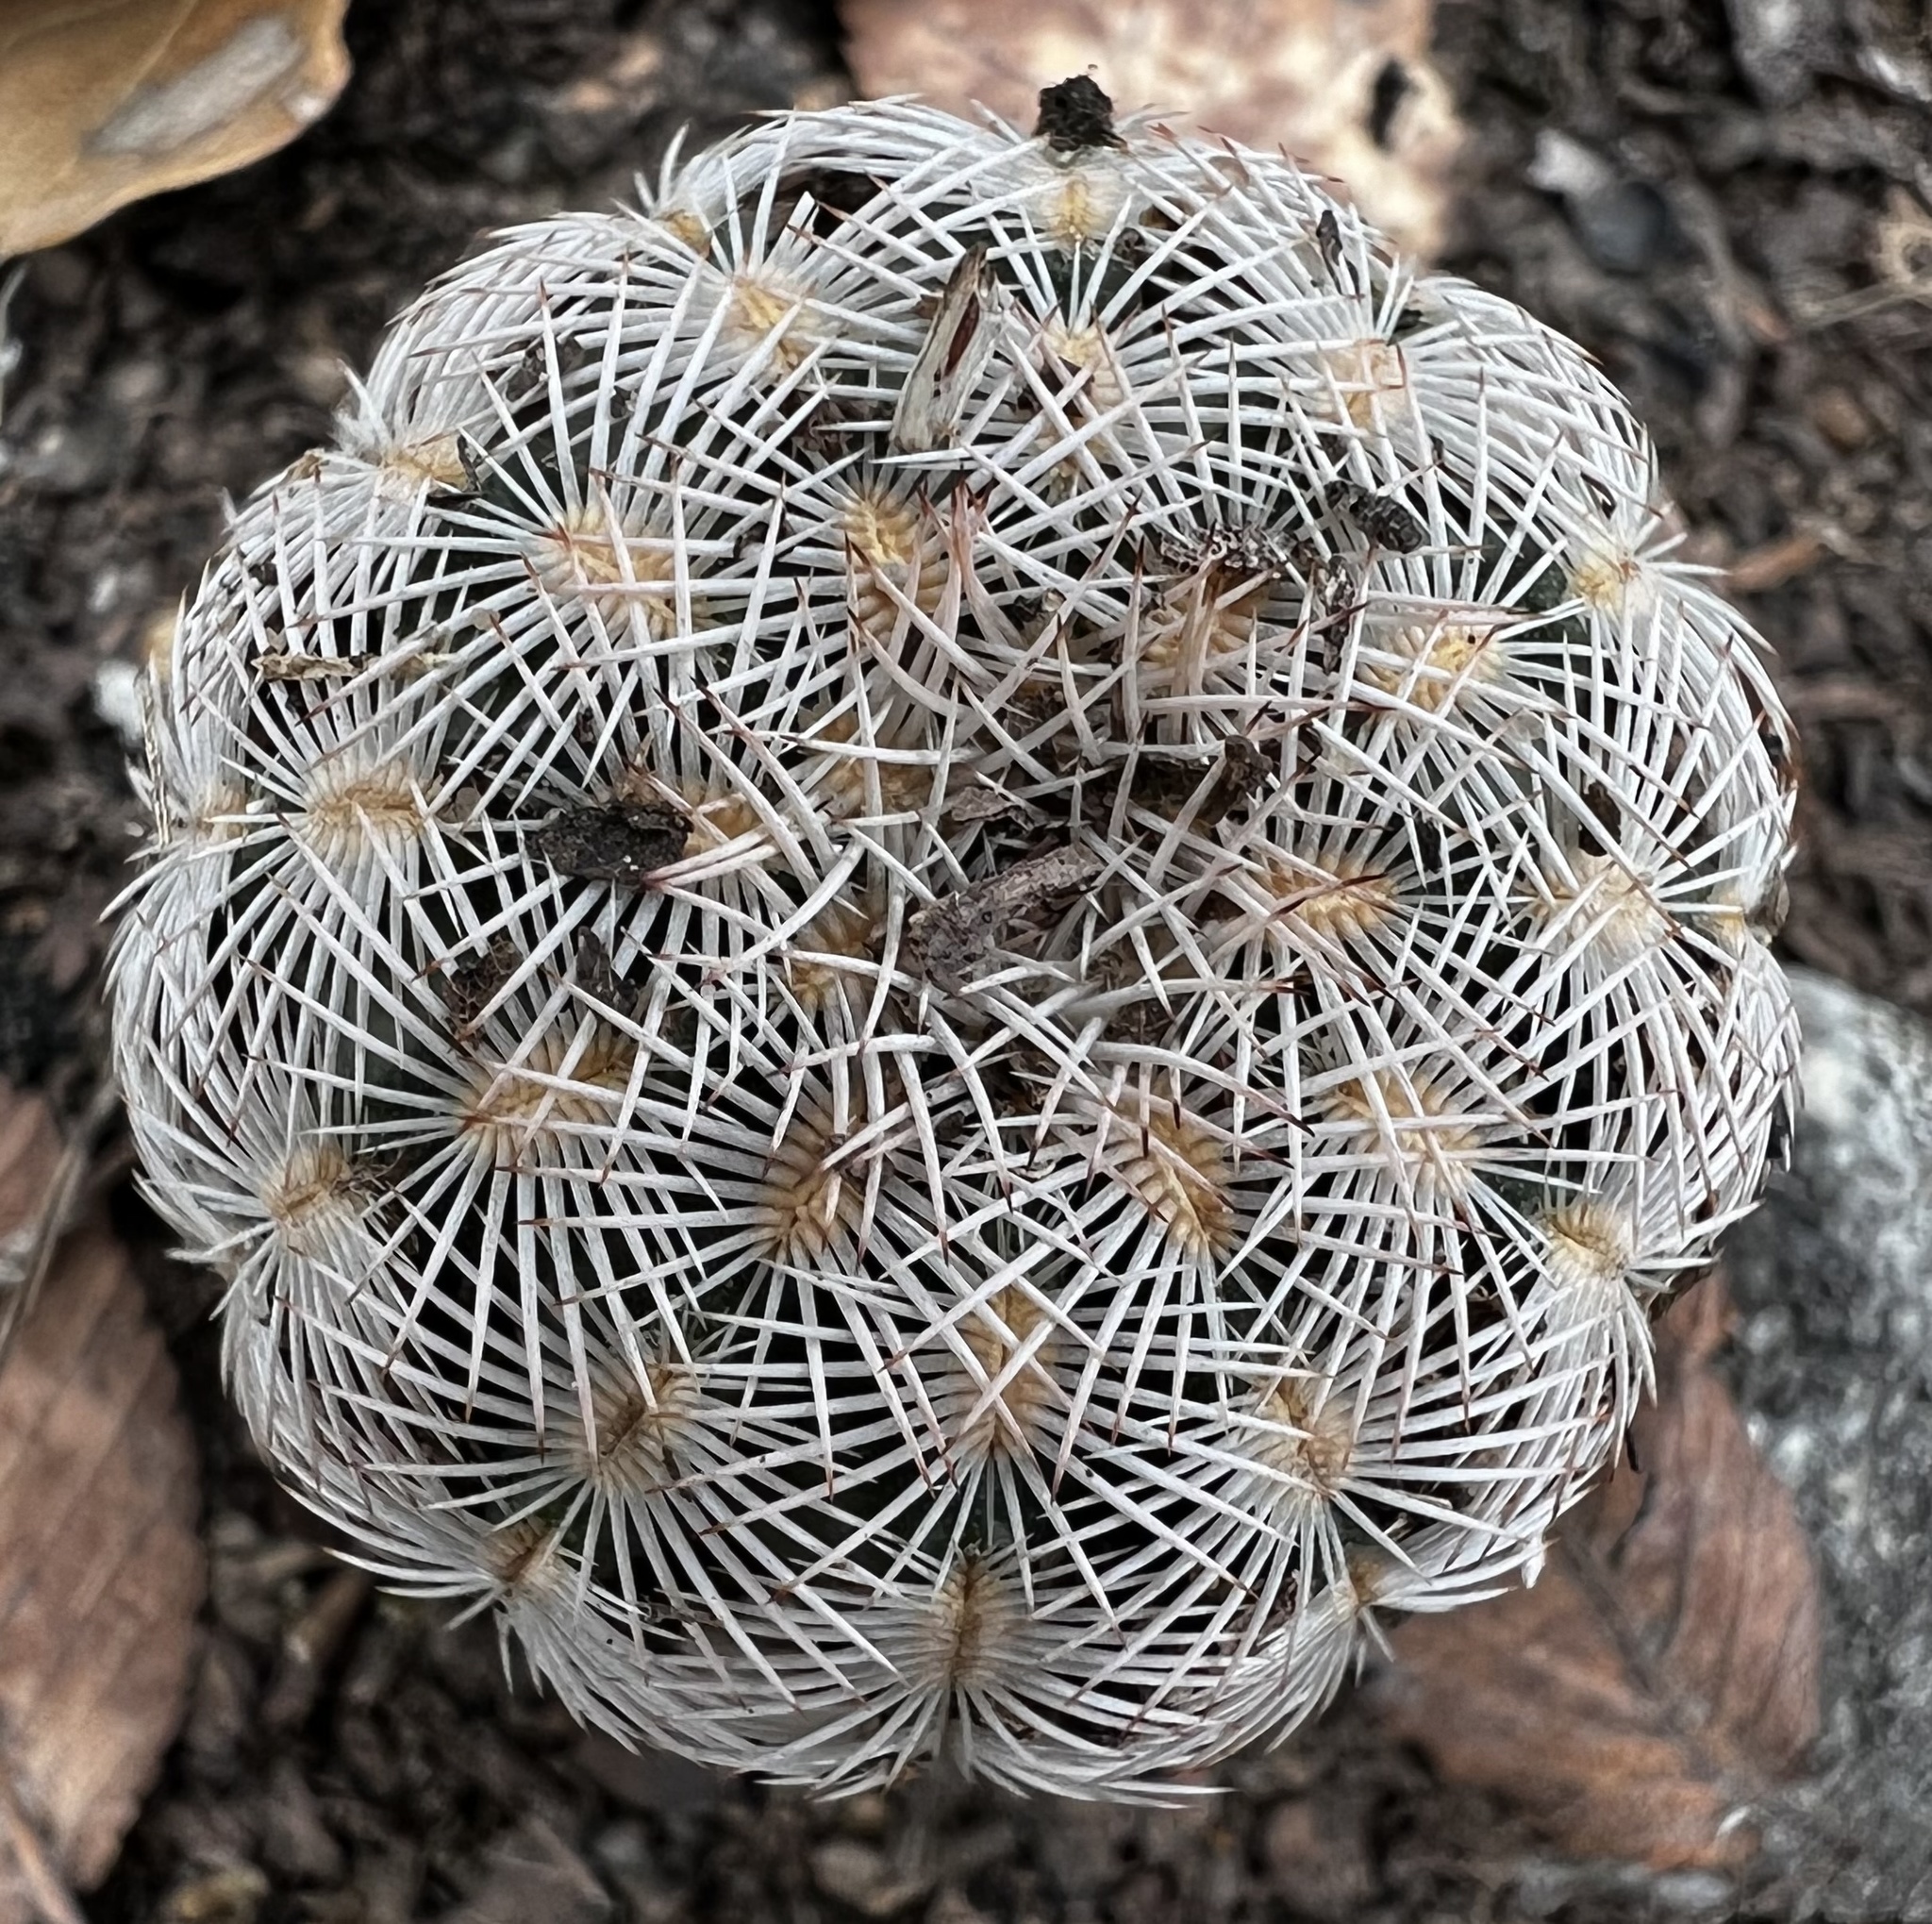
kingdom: Plantae
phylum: Tracheophyta
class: Magnoliopsida
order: Caryophyllales
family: Cactaceae
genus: Echinocereus
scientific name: Echinocereus reichenbachii
